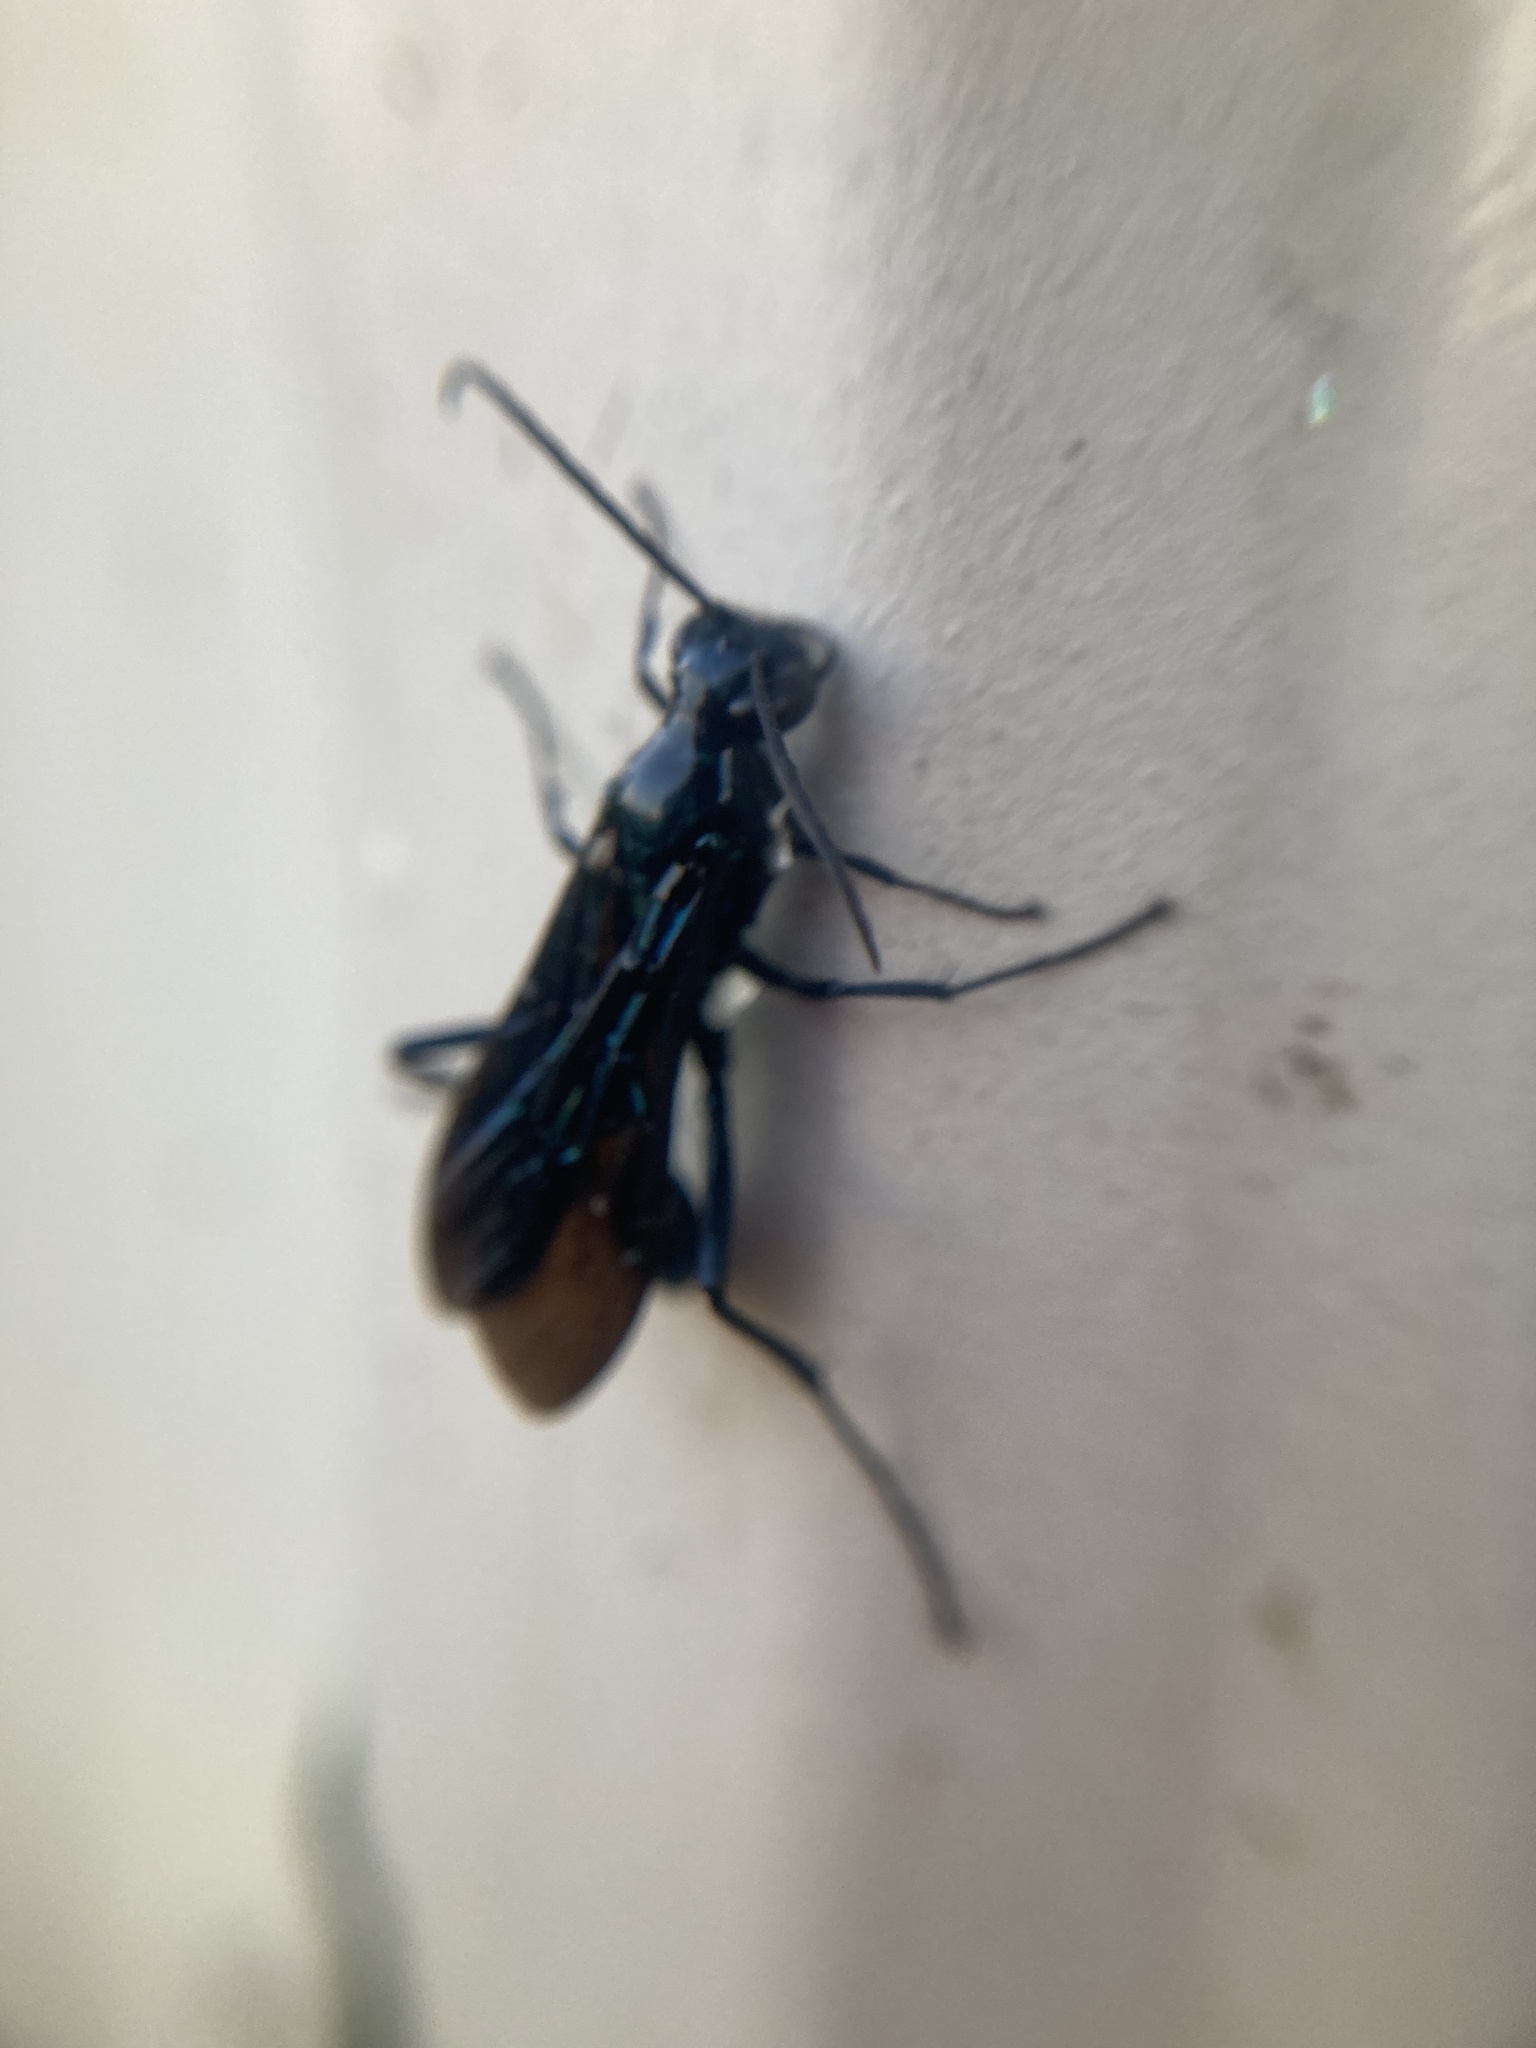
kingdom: Animalia
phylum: Arthropoda
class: Insecta
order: Hymenoptera
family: Sphecidae
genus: Chalybion
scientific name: Chalybion californicum
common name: Mud dauber
